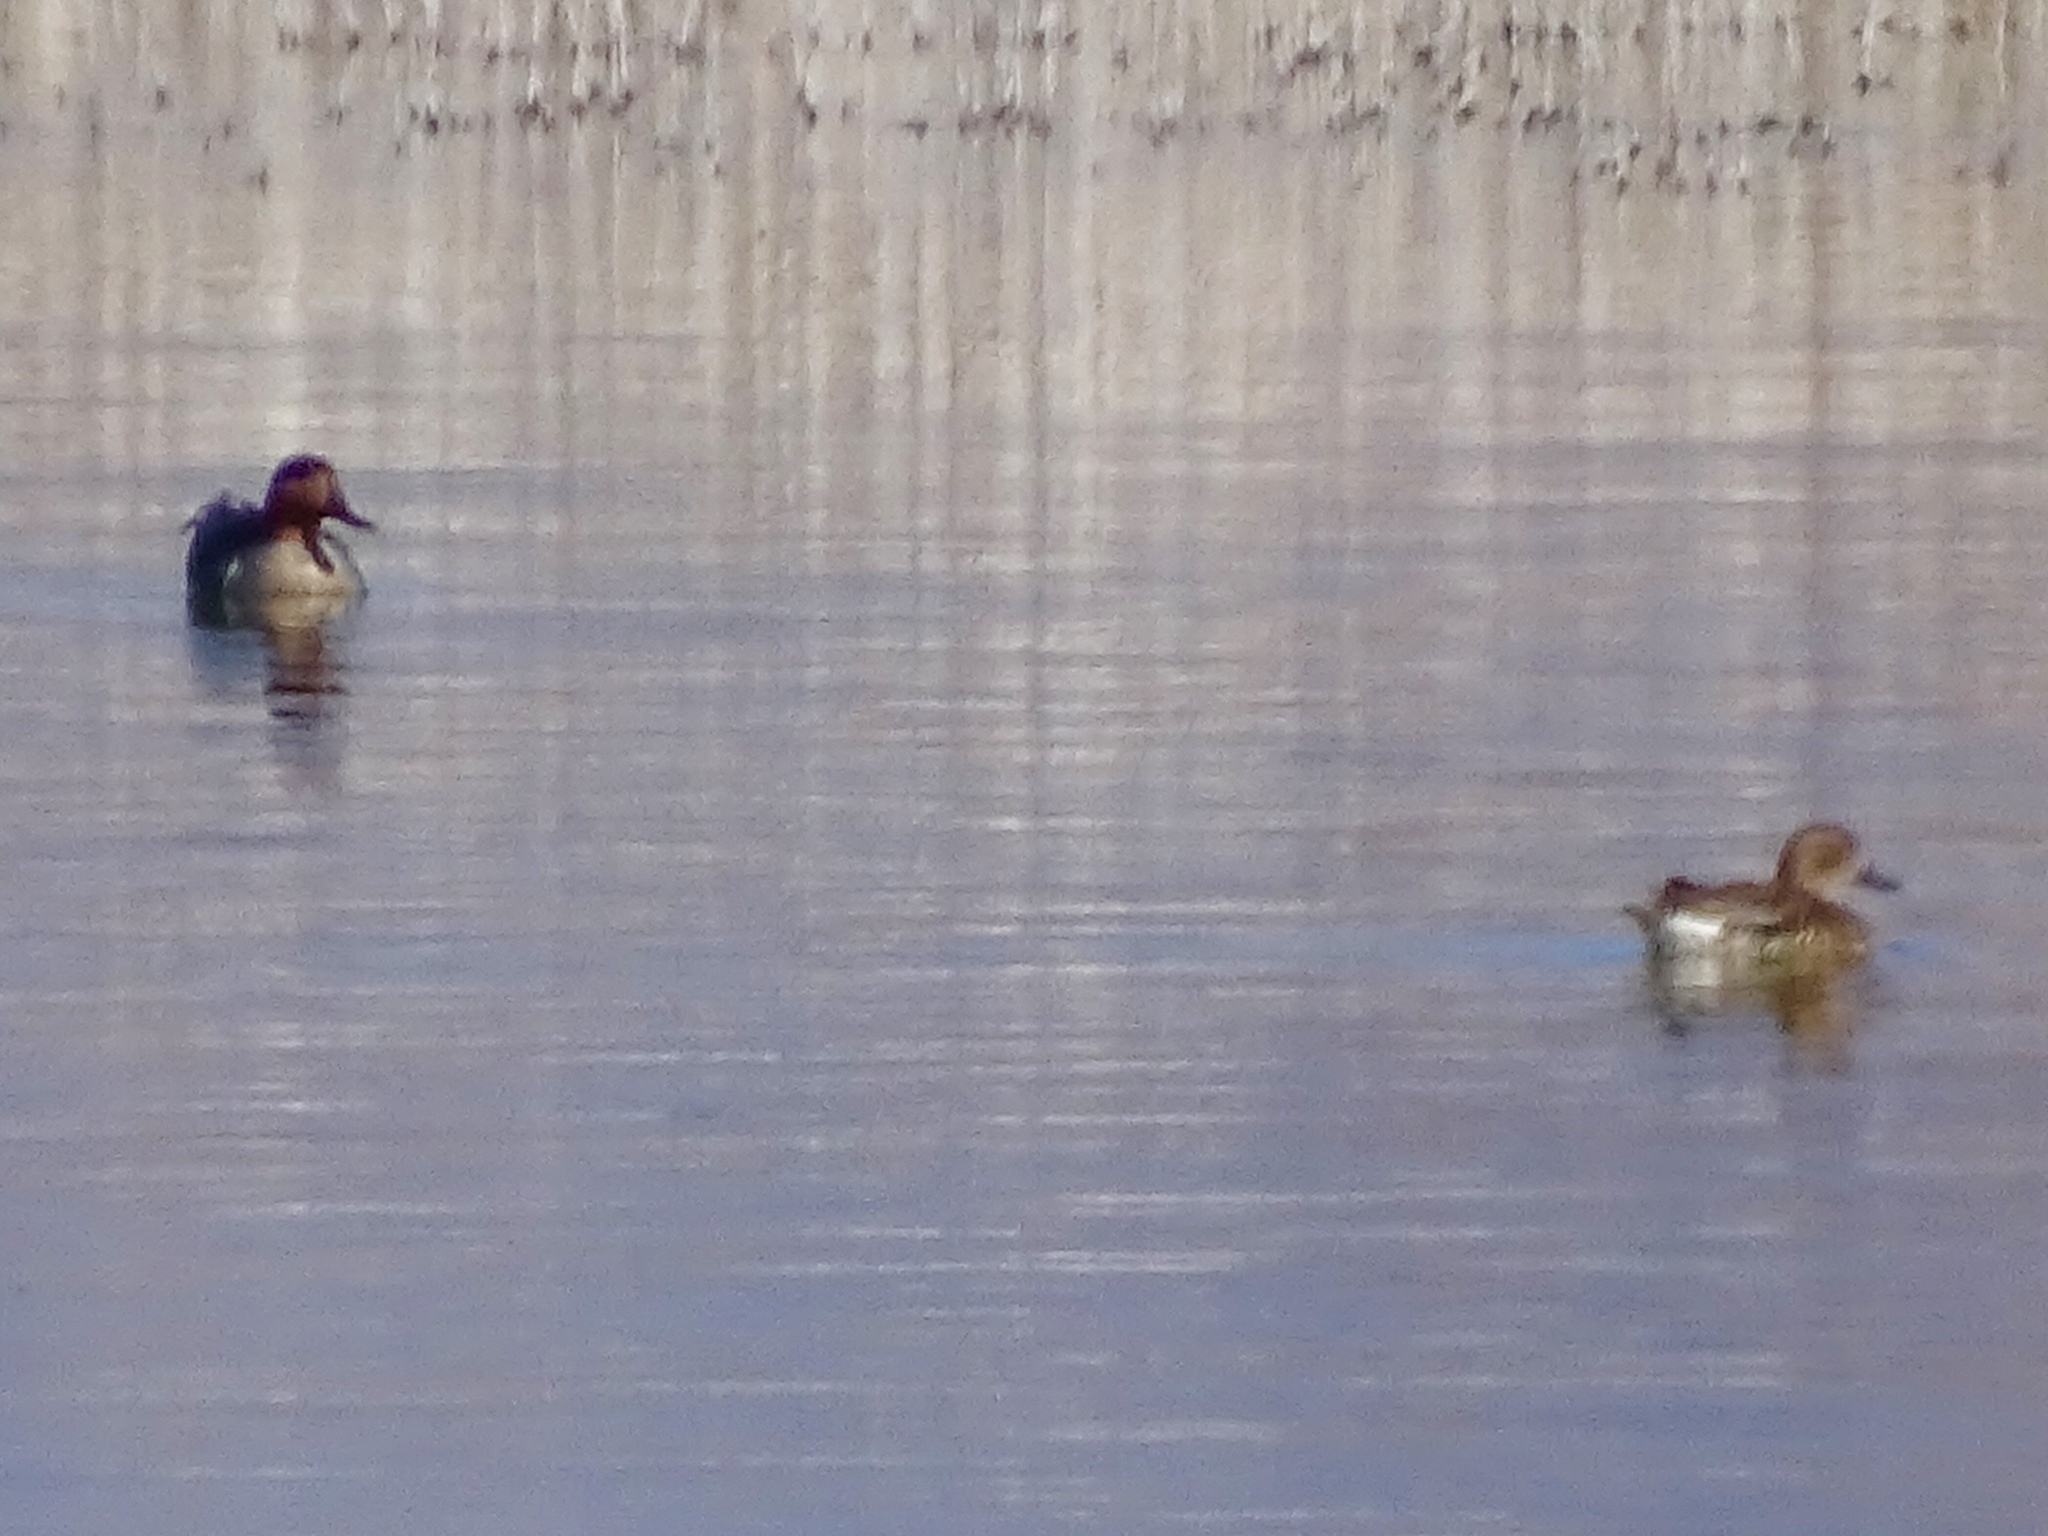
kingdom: Animalia
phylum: Chordata
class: Aves
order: Anseriformes
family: Anatidae
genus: Anas
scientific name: Anas crecca
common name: Eurasian teal
